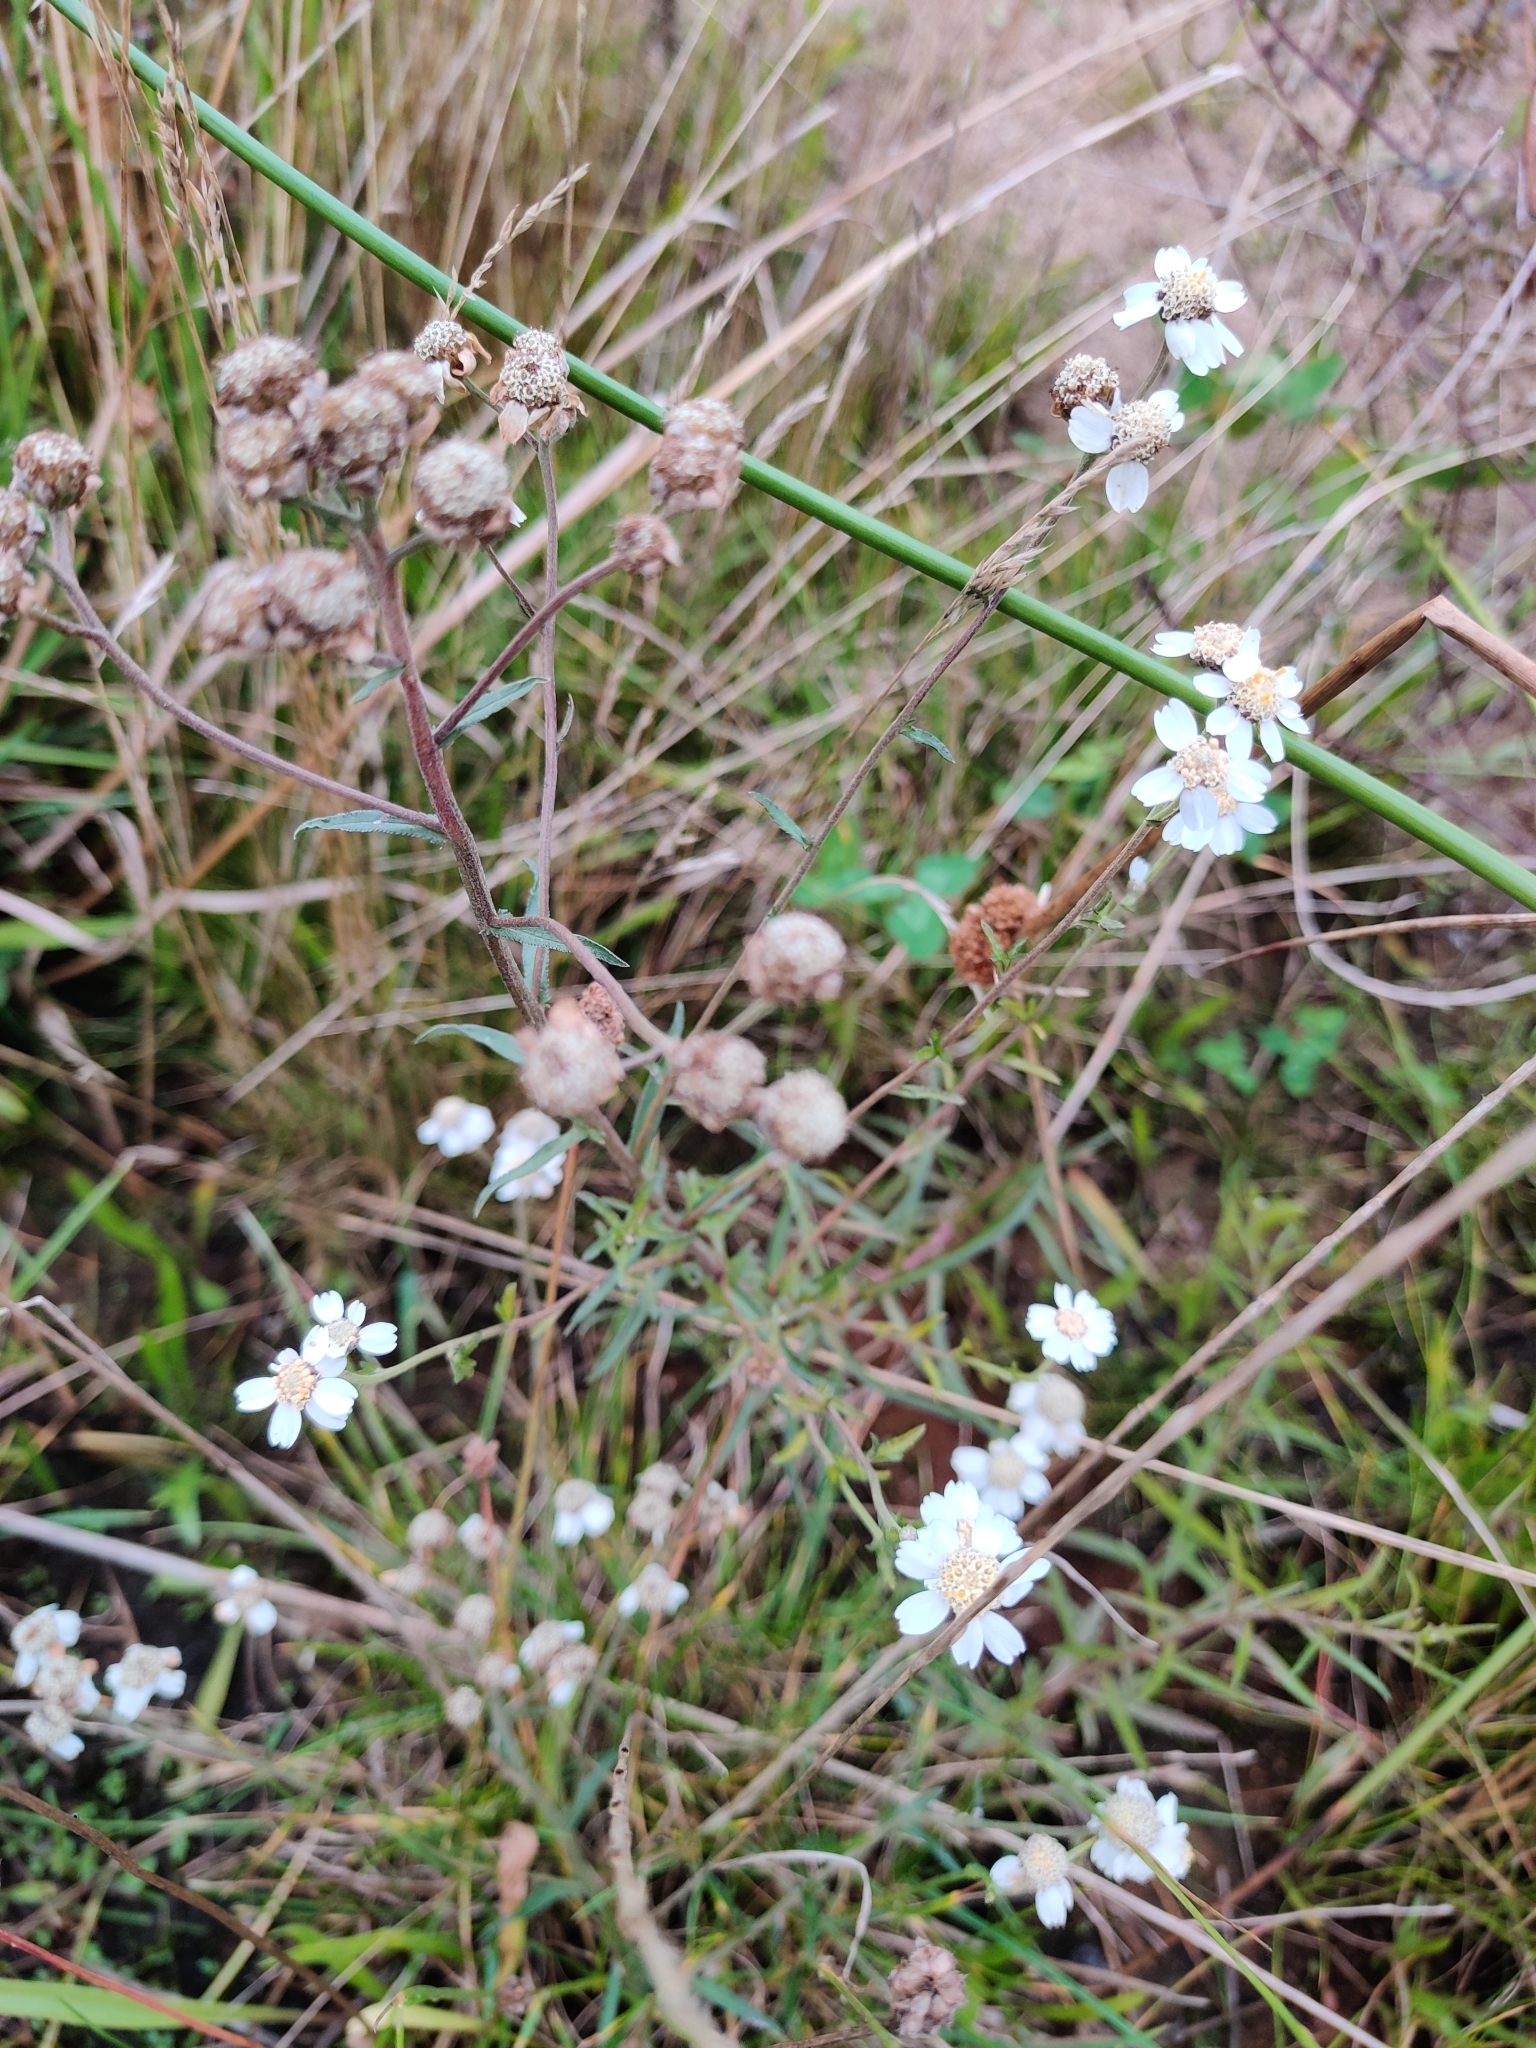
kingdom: Plantae
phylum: Tracheophyta
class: Magnoliopsida
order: Asterales
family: Asteraceae
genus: Achillea
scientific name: Achillea ptarmica
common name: Sneezeweed
